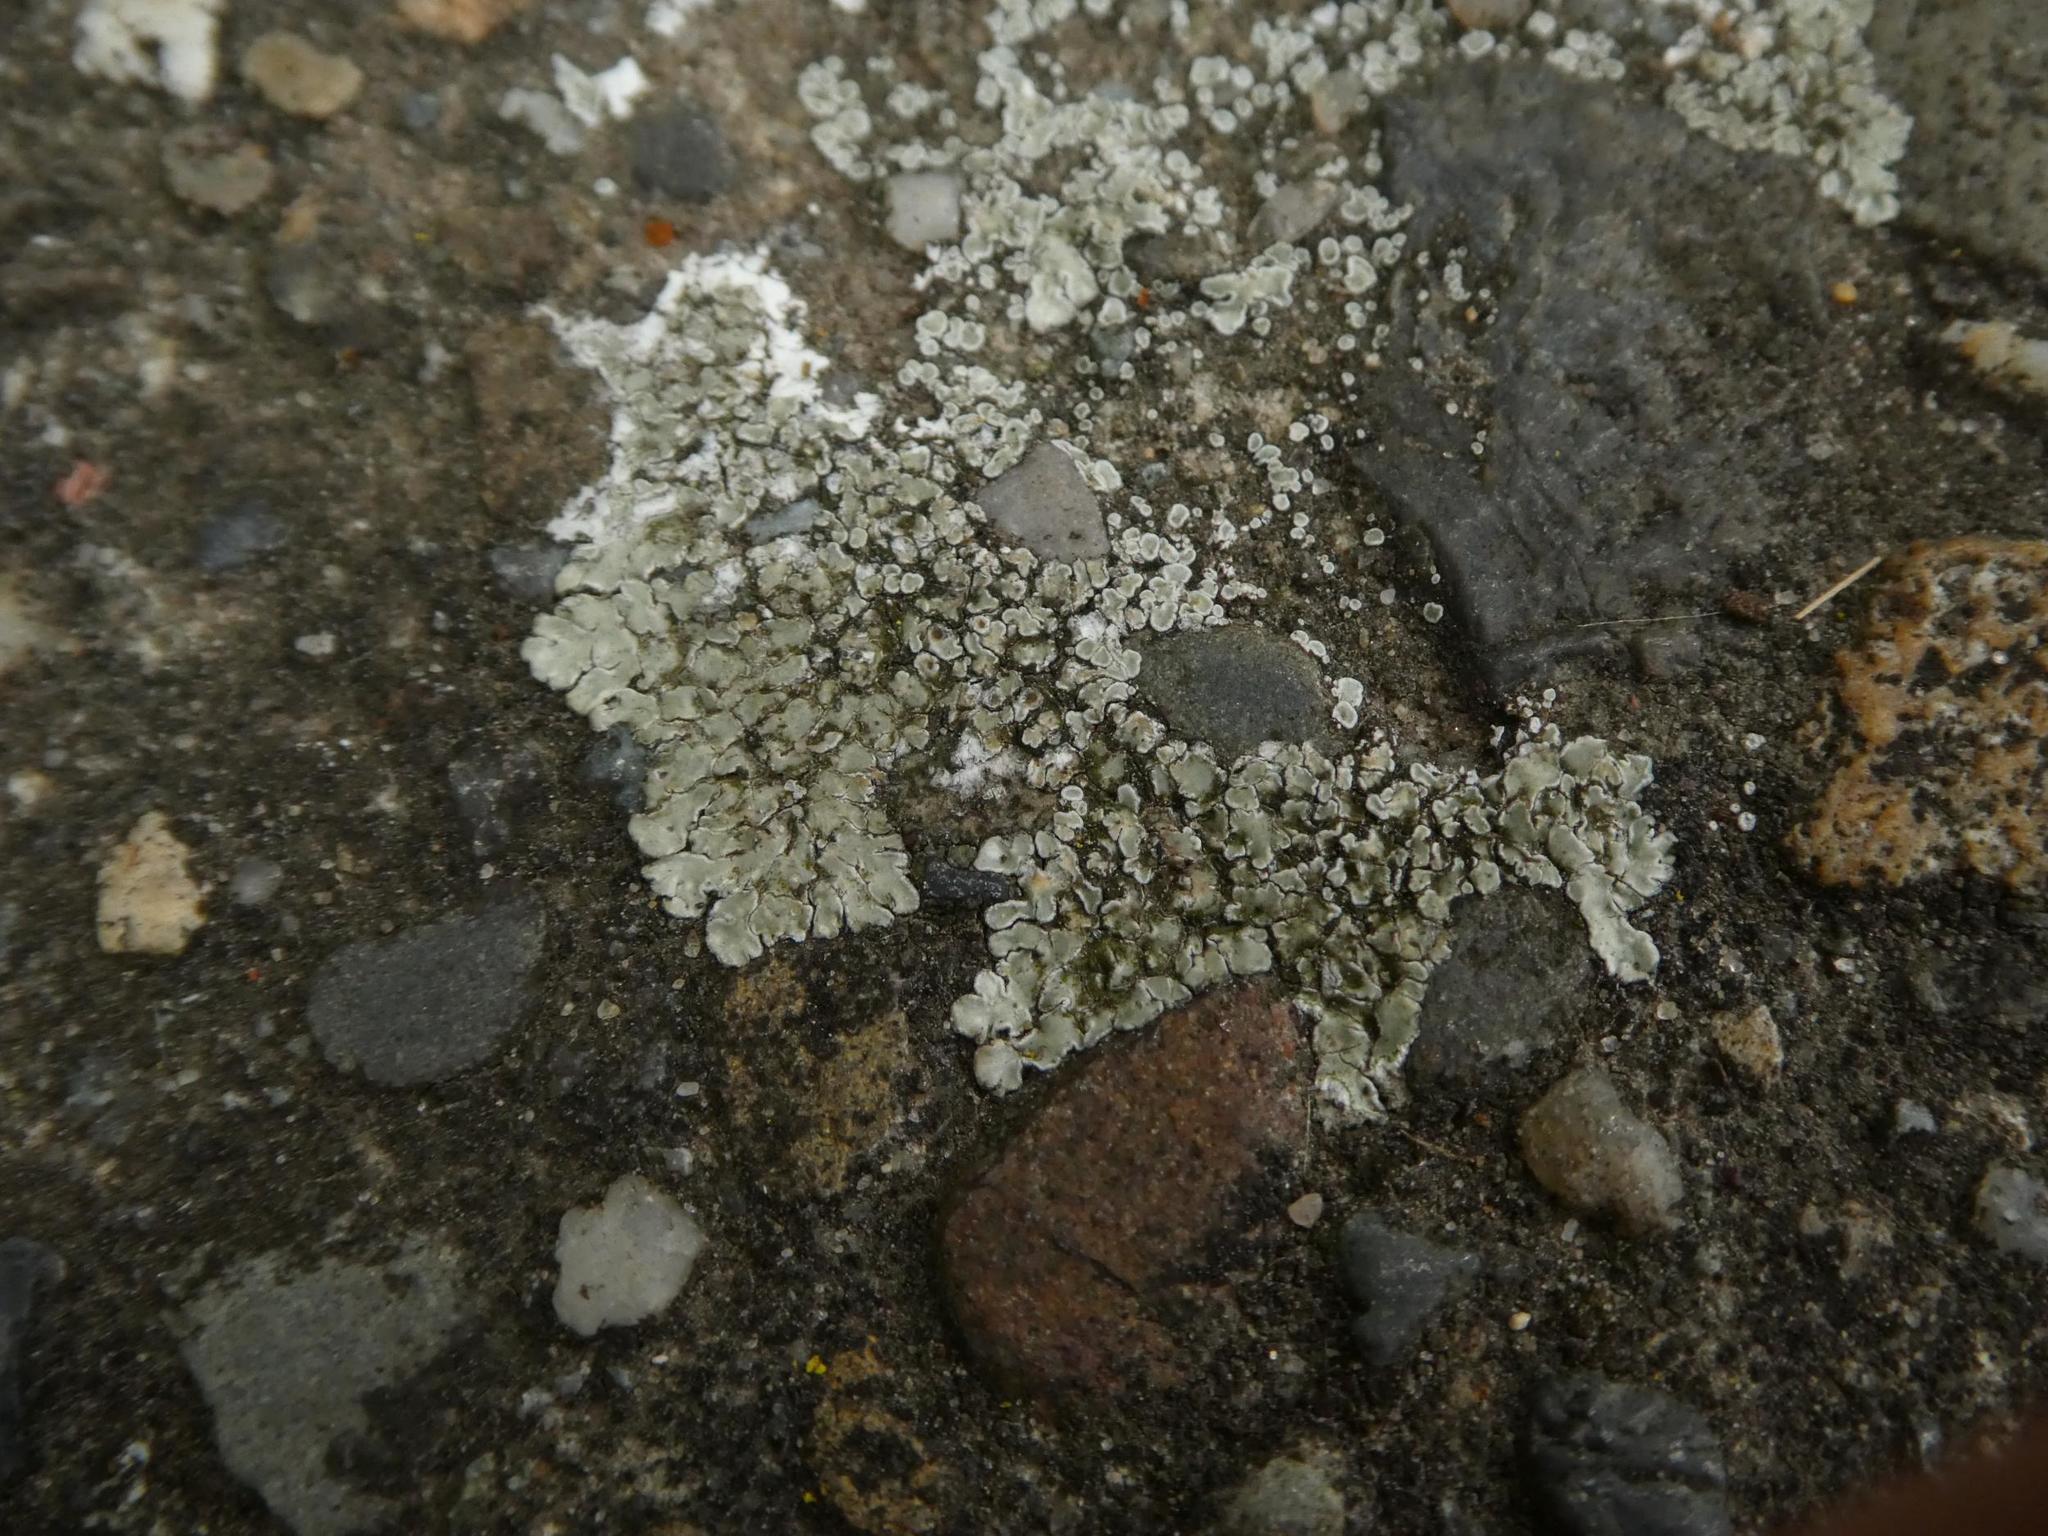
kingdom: Fungi
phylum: Ascomycota
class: Lecanoromycetes
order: Lecanorales
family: Lecanoraceae
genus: Protoparmeliopsis
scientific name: Protoparmeliopsis muralis
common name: Stonewall rim lichen
